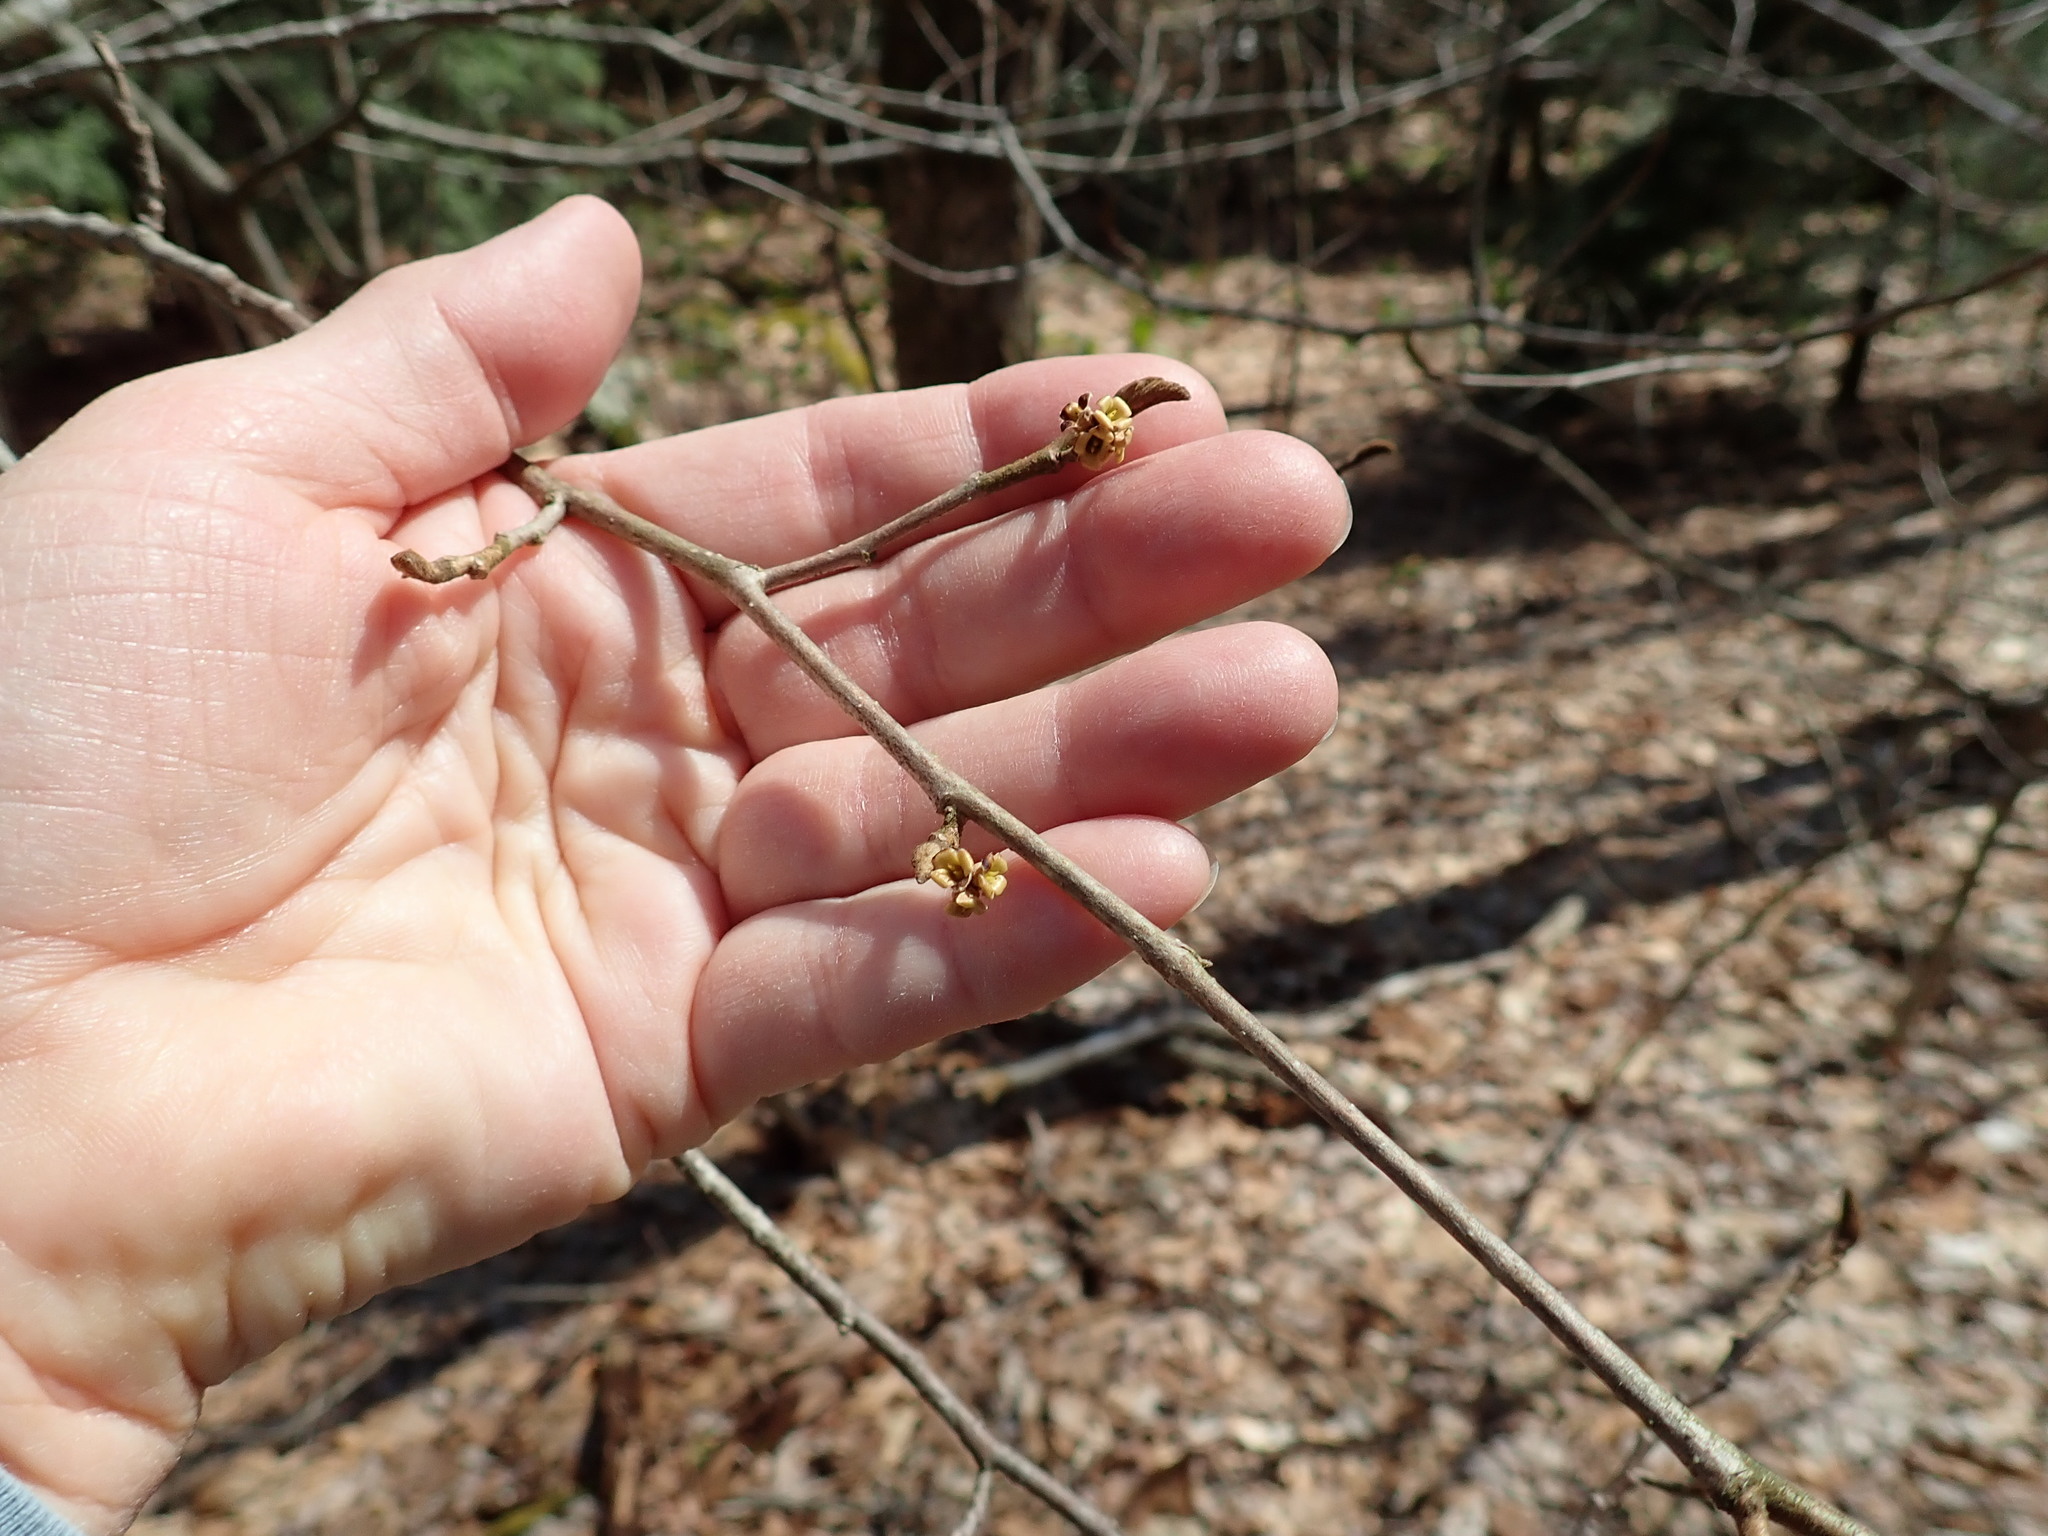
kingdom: Plantae
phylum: Tracheophyta
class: Magnoliopsida
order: Saxifragales
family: Hamamelidaceae
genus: Hamamelis
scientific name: Hamamelis virginiana
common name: Witch-hazel
